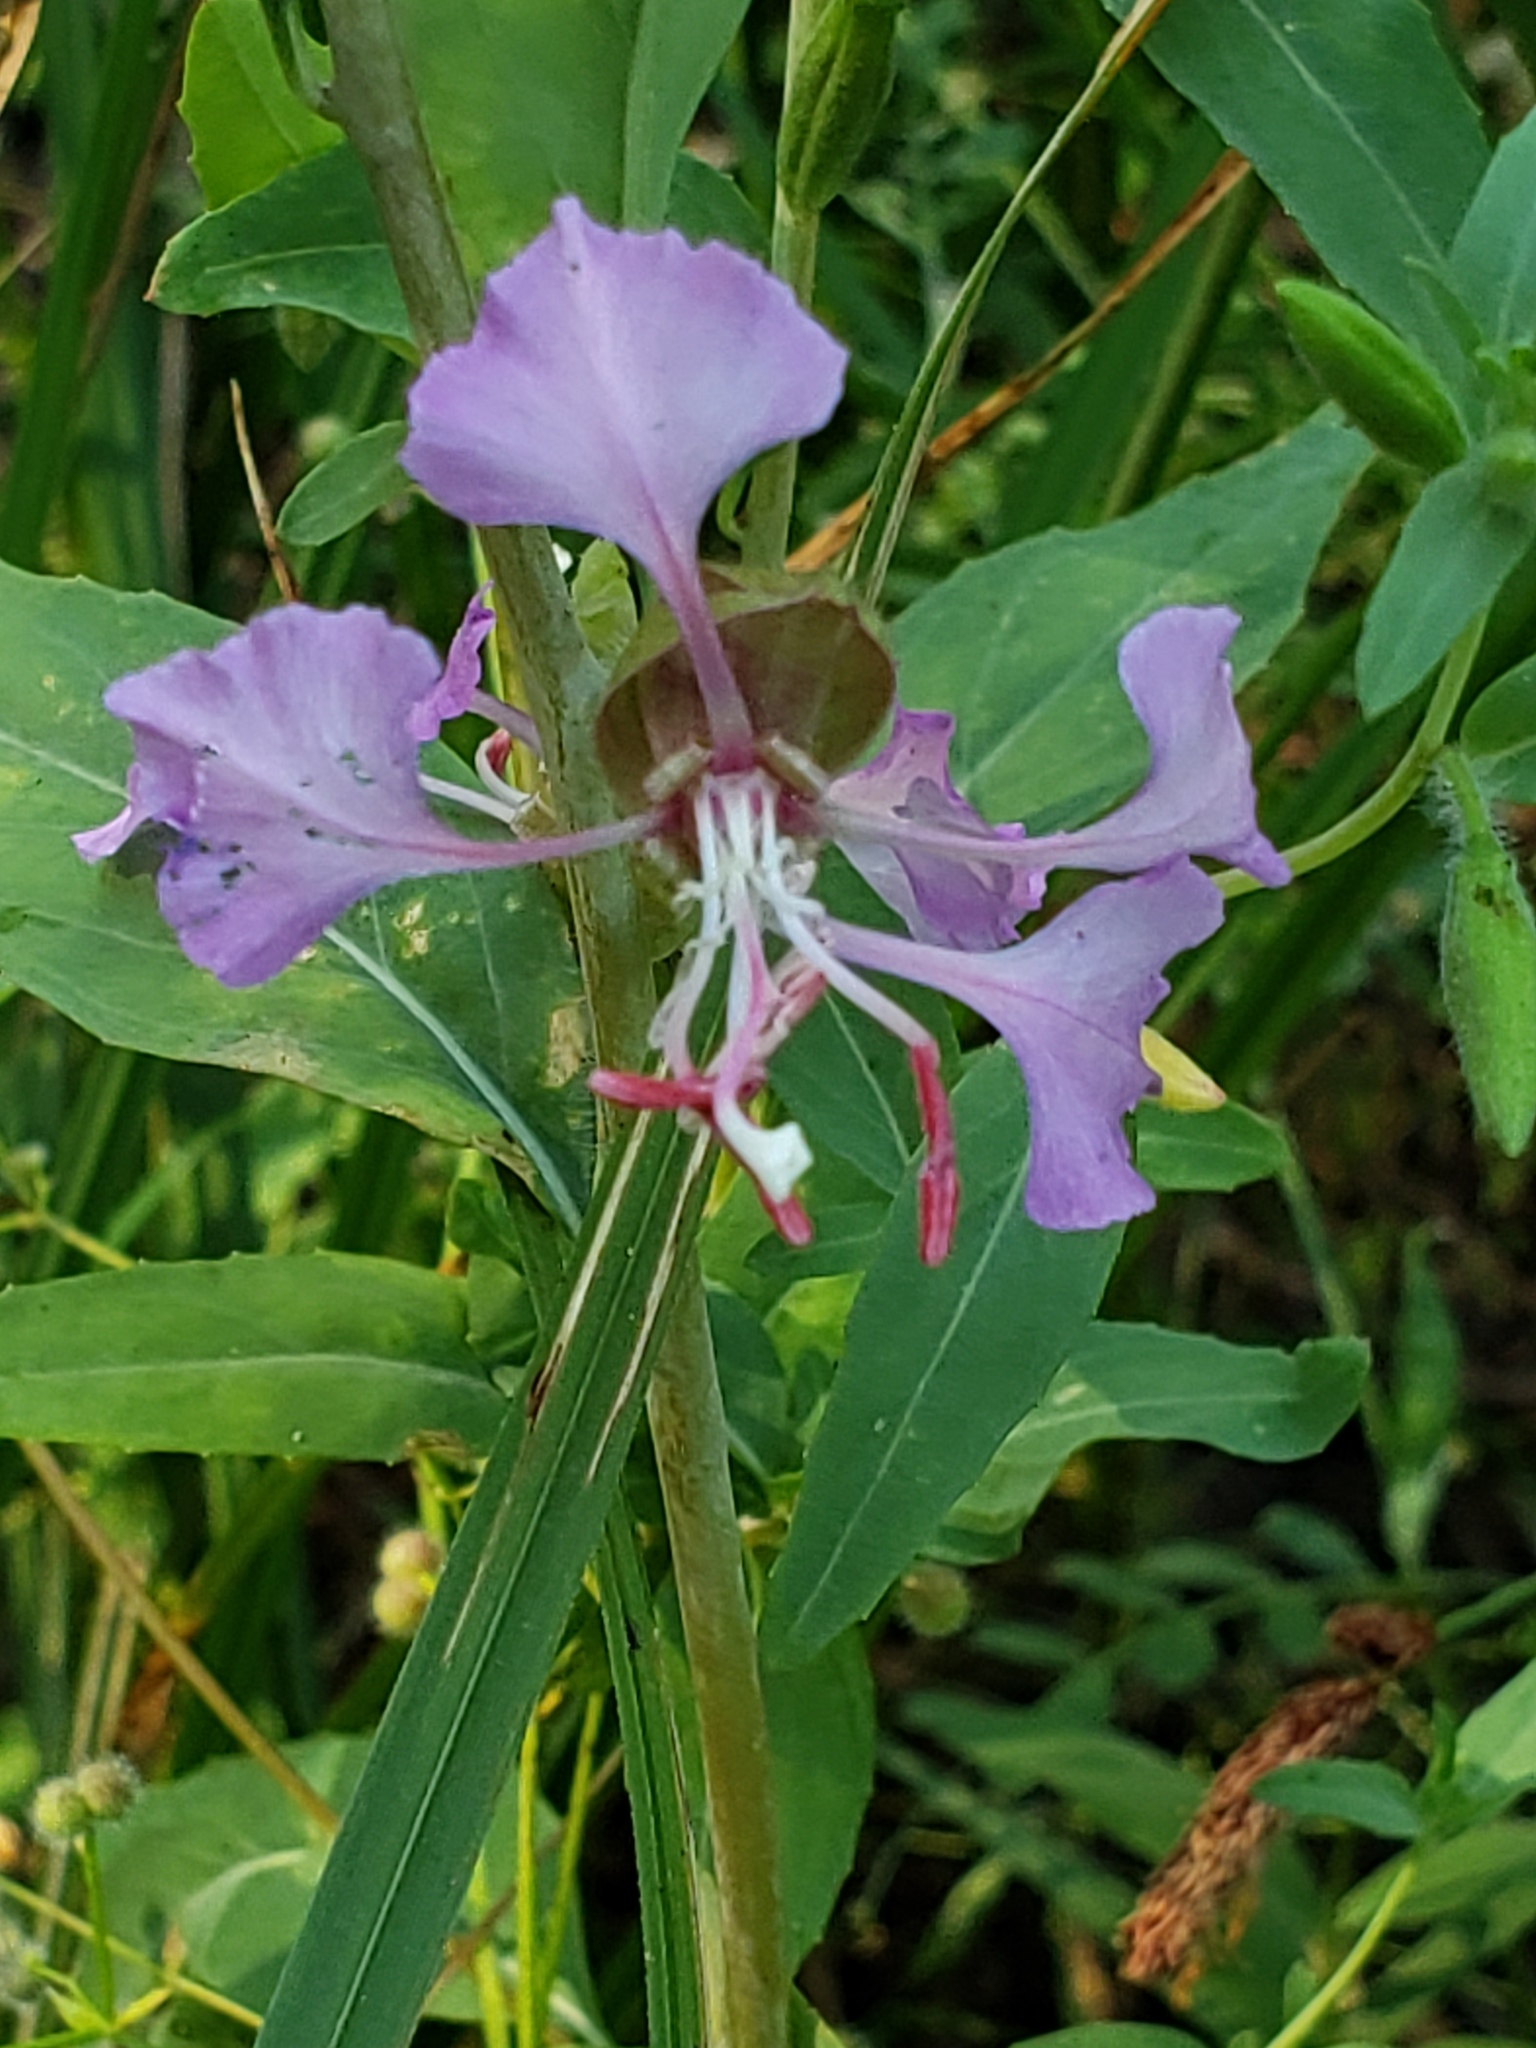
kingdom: Plantae
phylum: Tracheophyta
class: Magnoliopsida
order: Myrtales
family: Onagraceae
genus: Clarkia
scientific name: Clarkia unguiculata
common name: Clarkia
